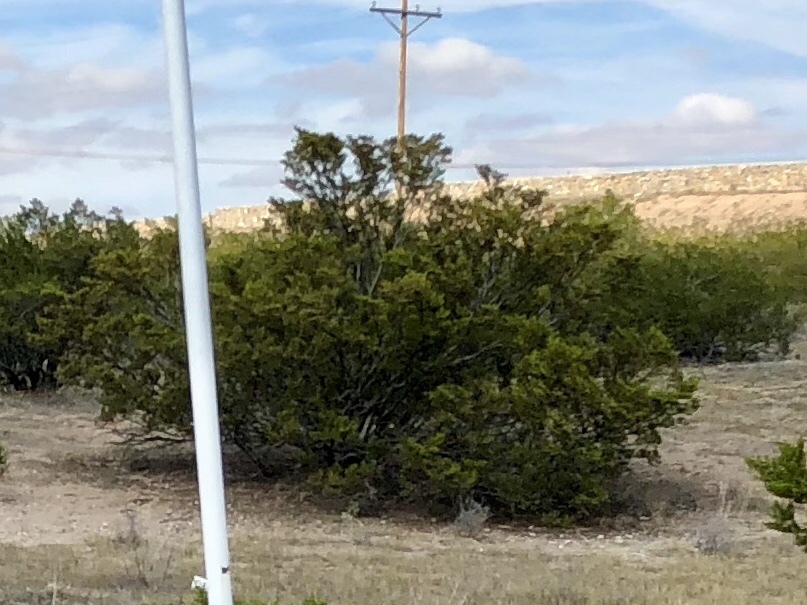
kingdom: Plantae
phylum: Tracheophyta
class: Magnoliopsida
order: Zygophyllales
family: Zygophyllaceae
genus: Larrea
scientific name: Larrea tridentata
